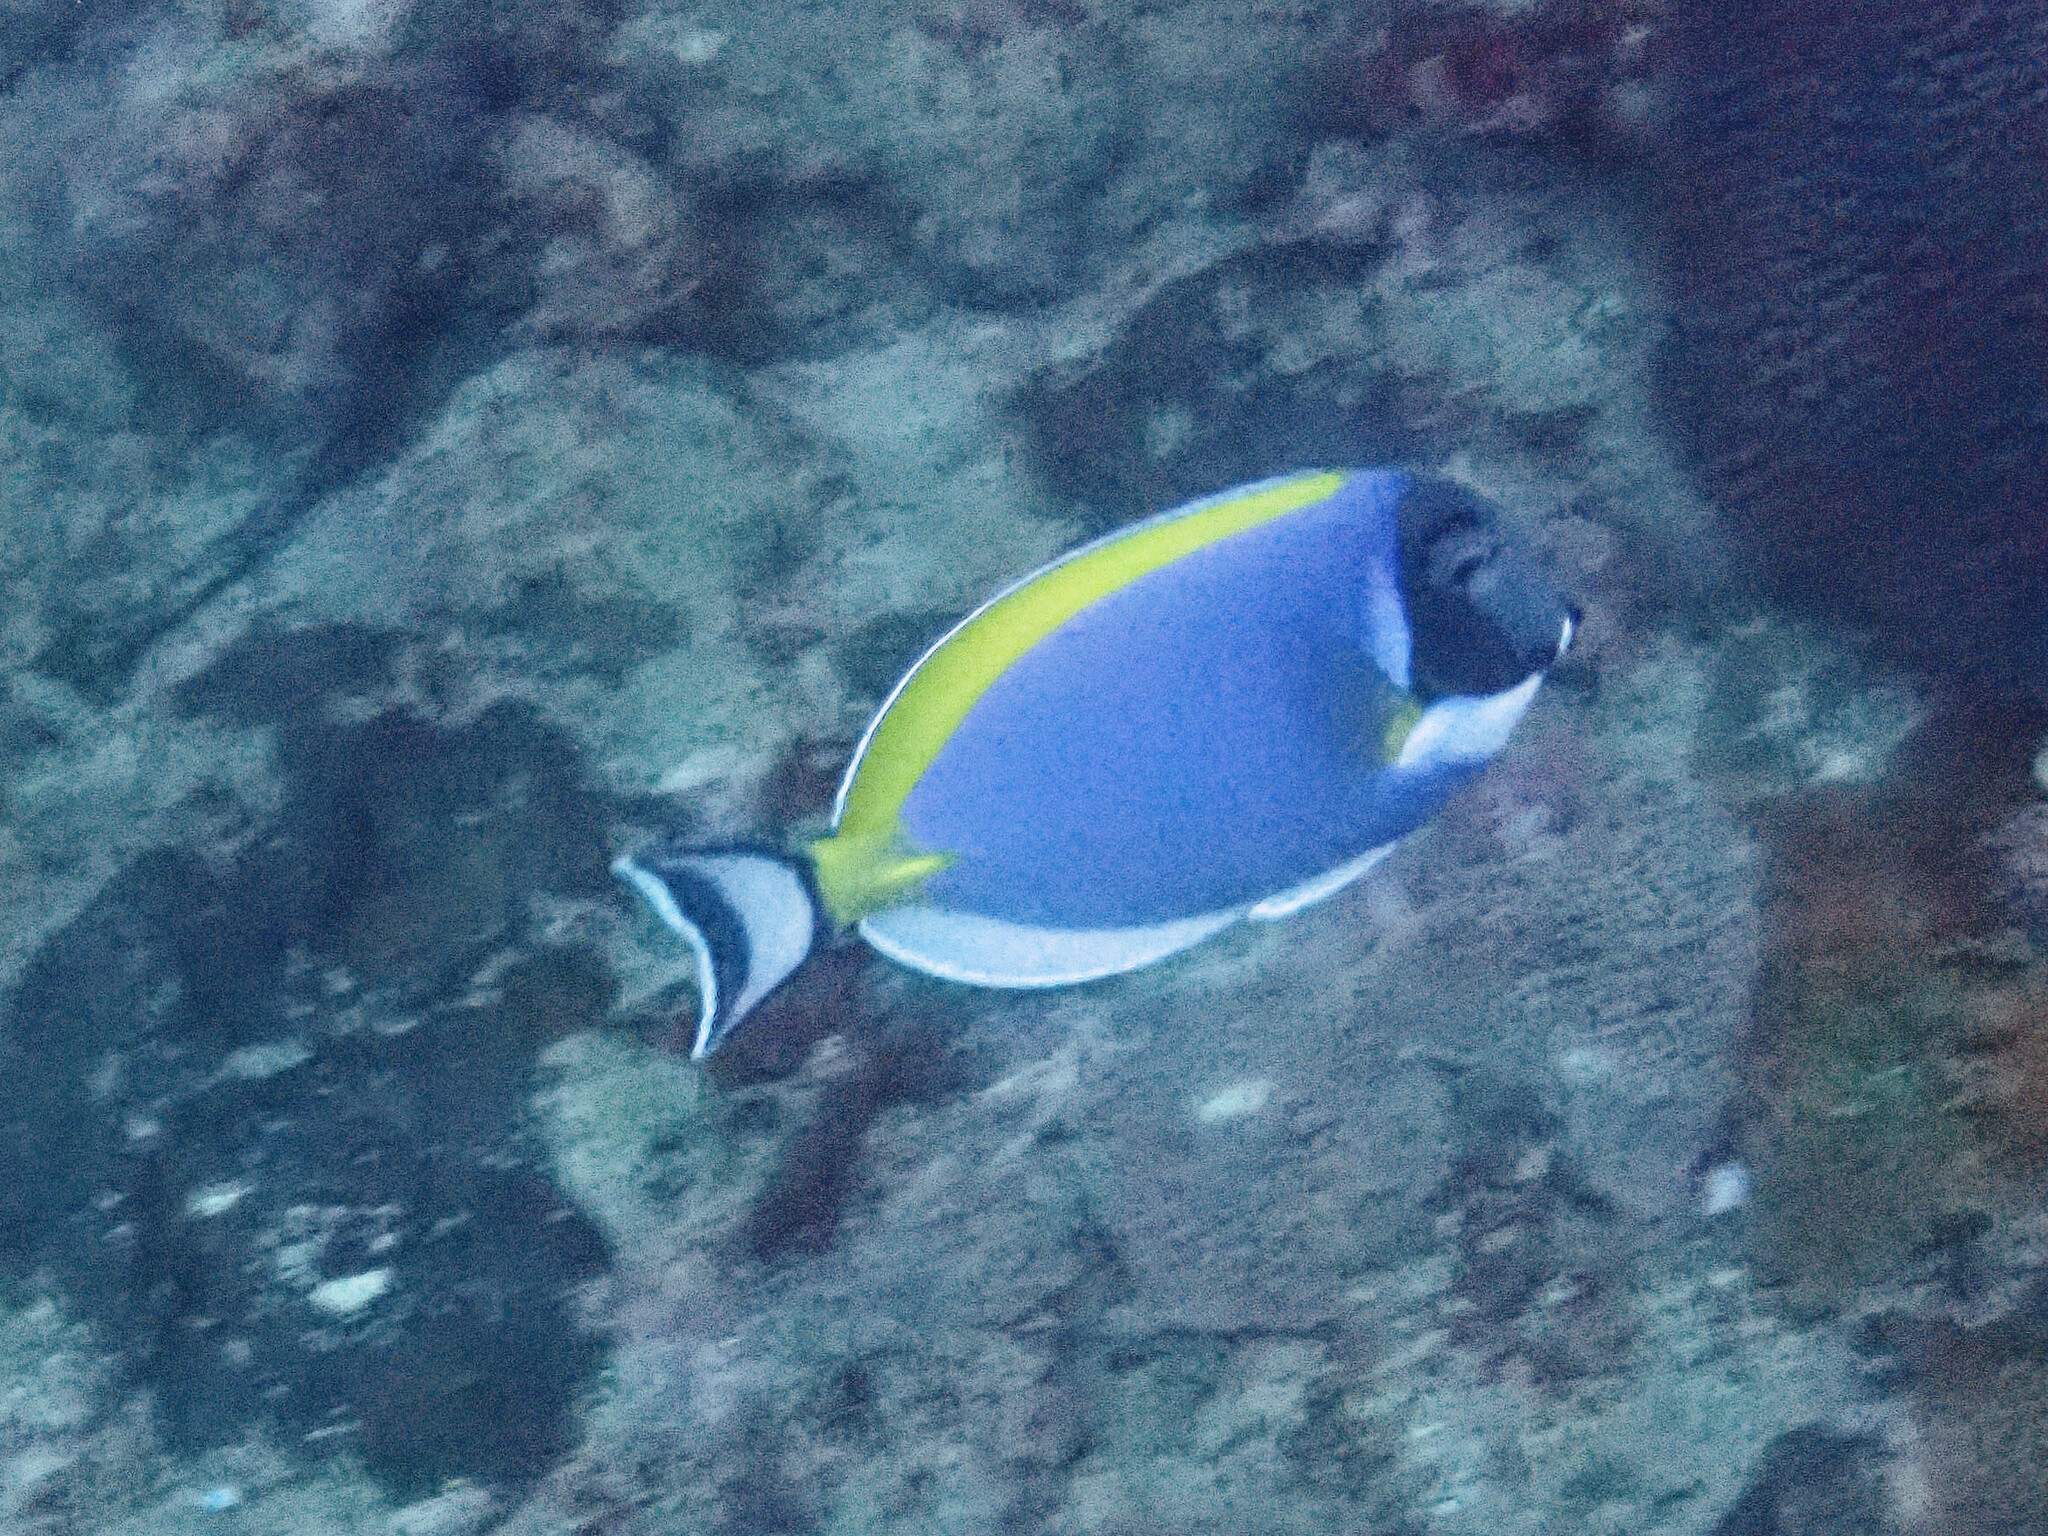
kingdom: Animalia
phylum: Chordata
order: Perciformes
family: Acanthuridae
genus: Acanthurus
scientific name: Acanthurus leucosternon
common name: Blue surgeonfish
